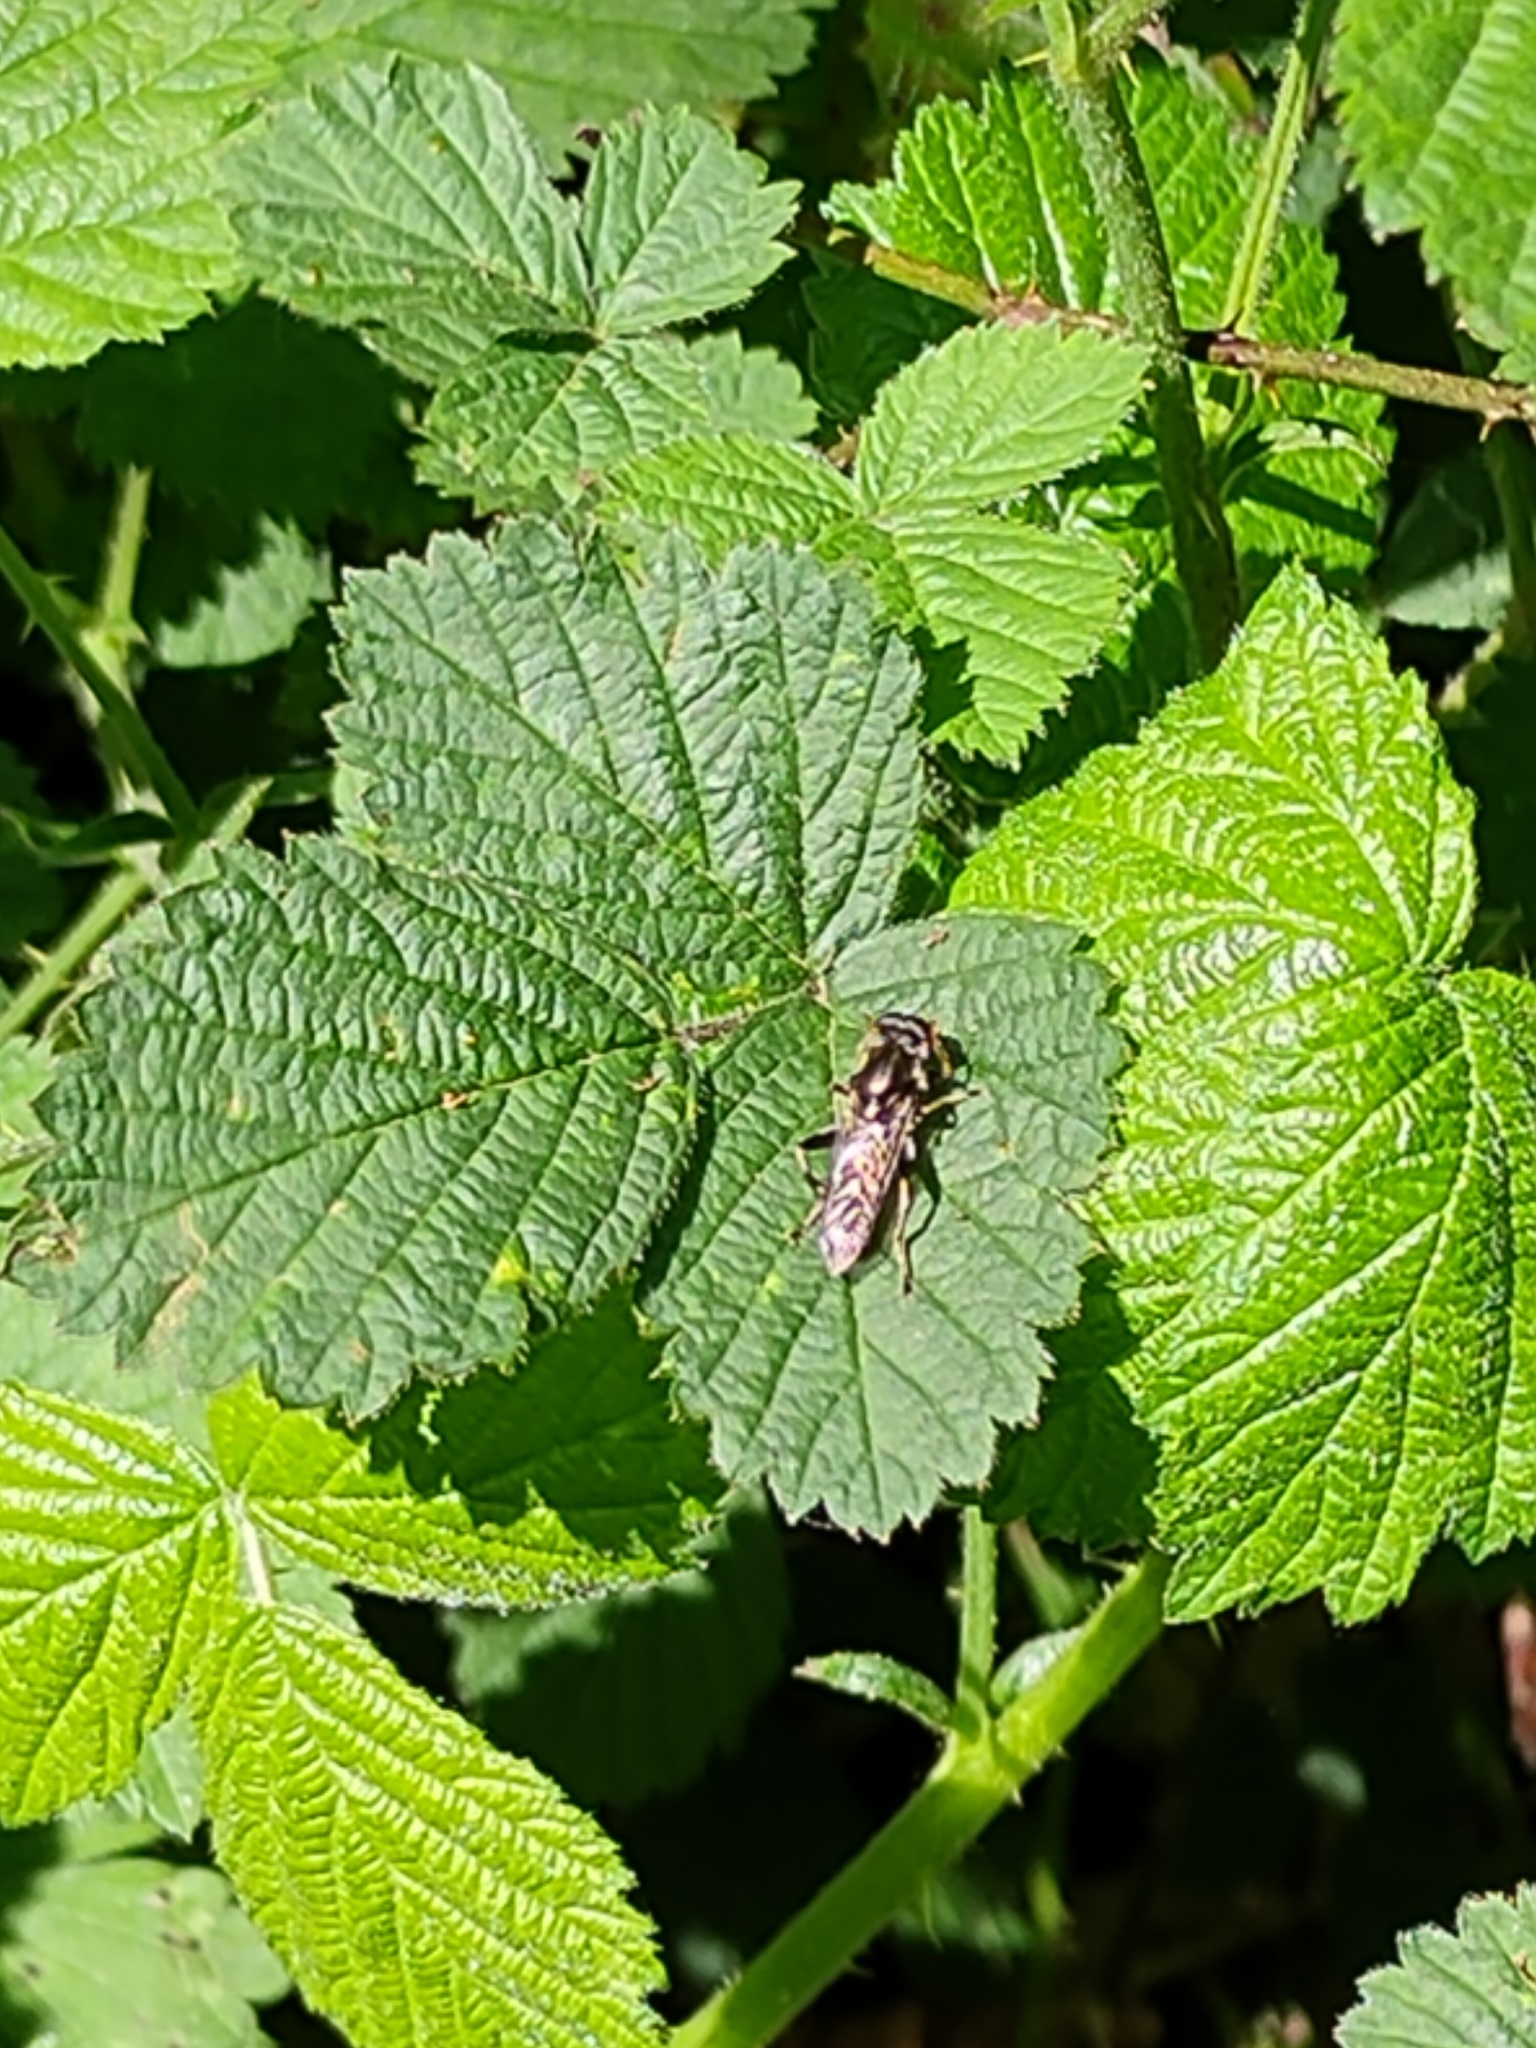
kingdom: Animalia
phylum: Arthropoda
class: Insecta
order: Diptera
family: Syrphidae
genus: Xylota
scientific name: Xylota
